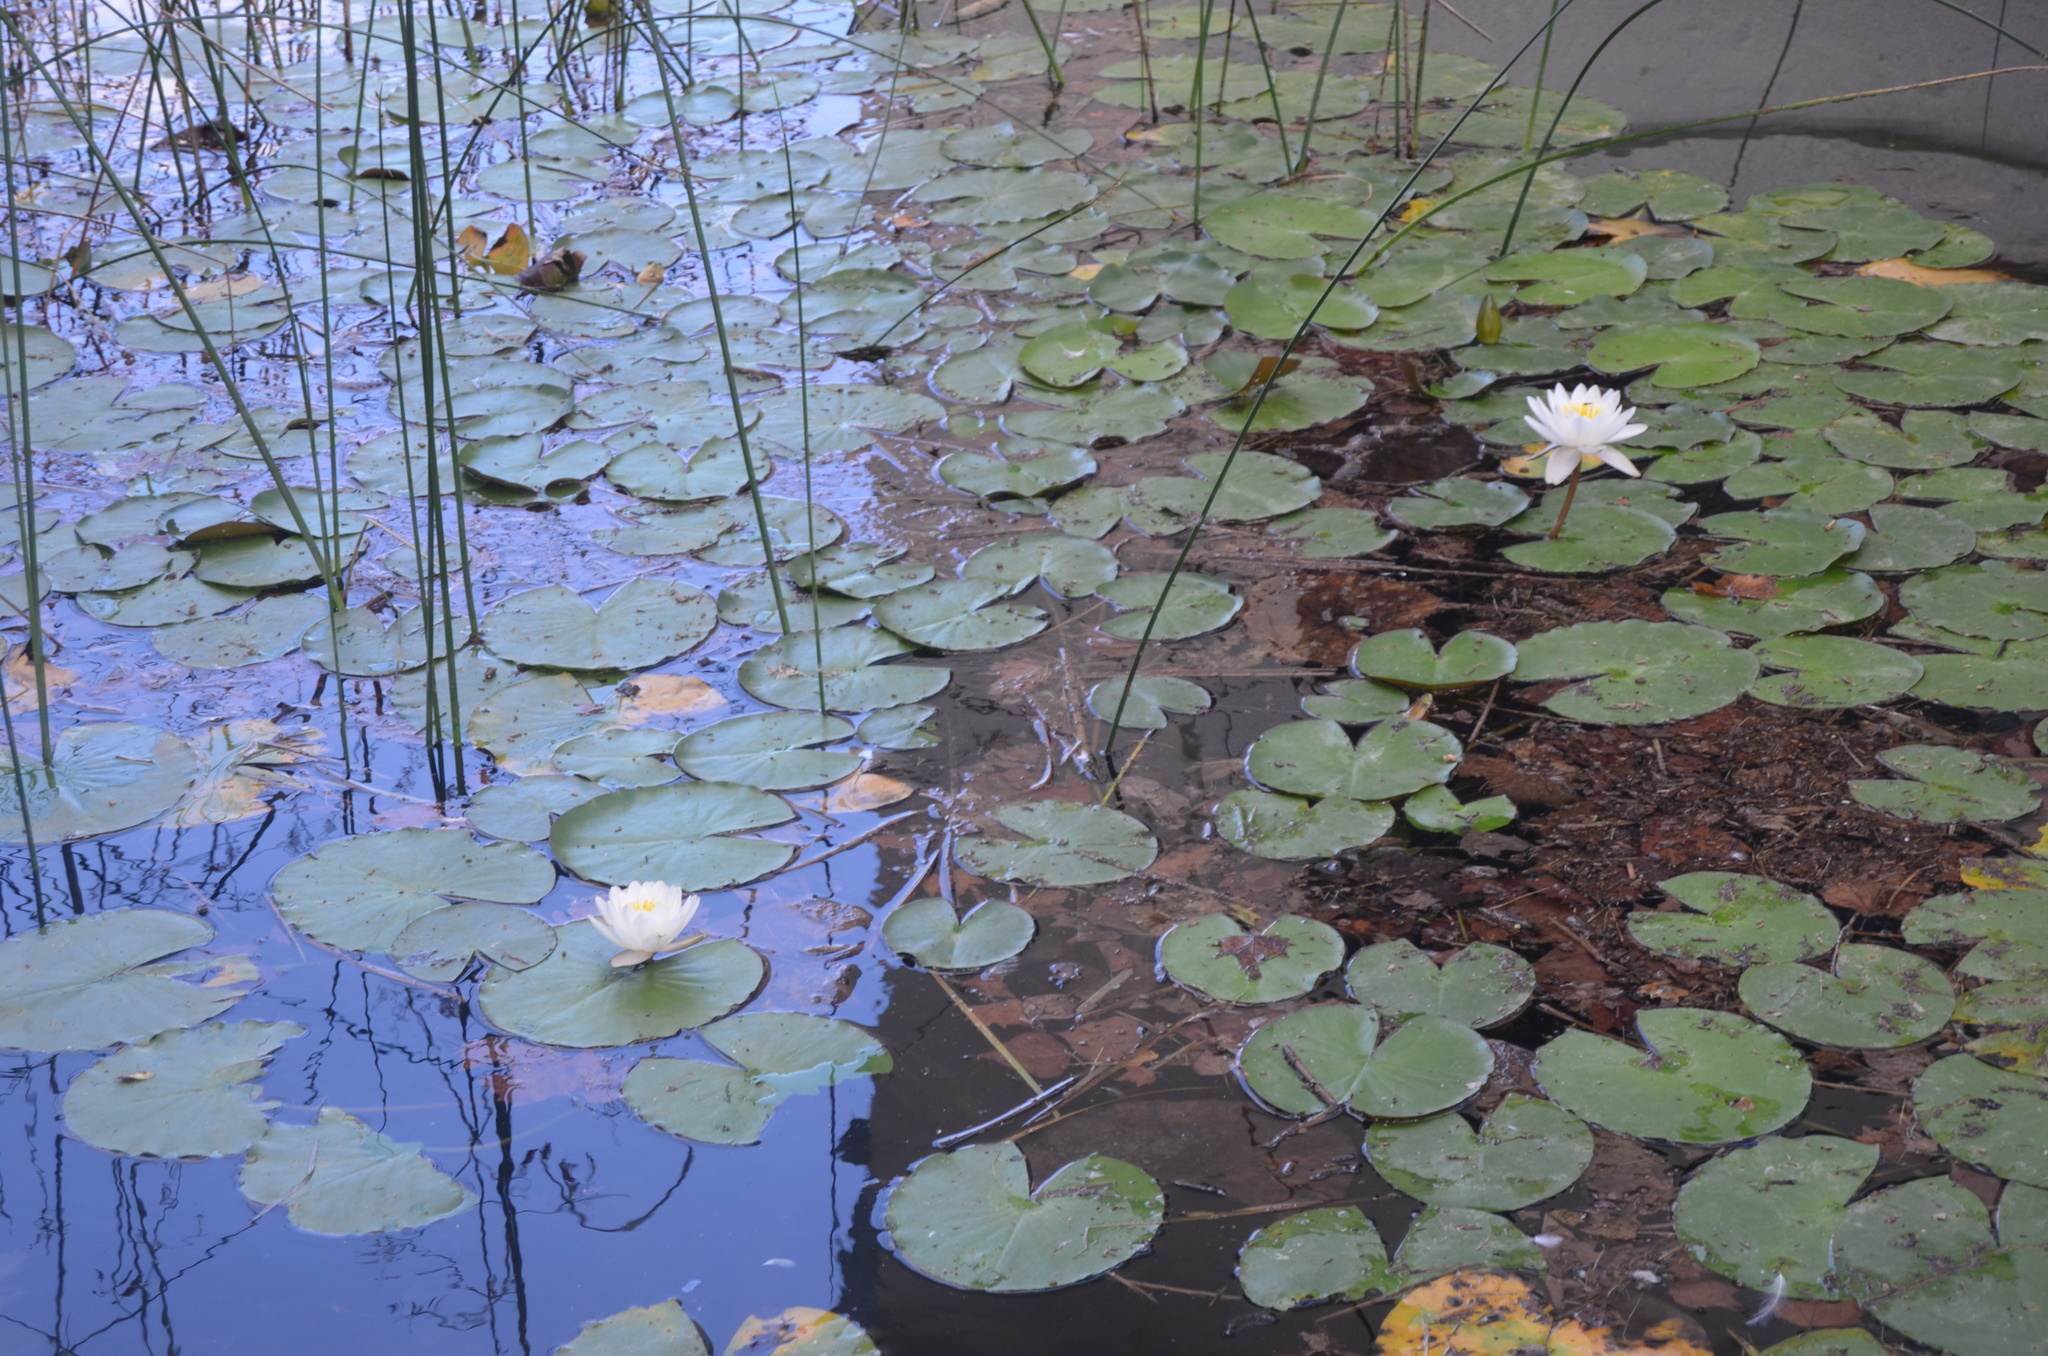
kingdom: Plantae
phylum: Tracheophyta
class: Magnoliopsida
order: Nymphaeales
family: Nymphaeaceae
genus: Nymphaea
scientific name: Nymphaea alba
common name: White water-lily
